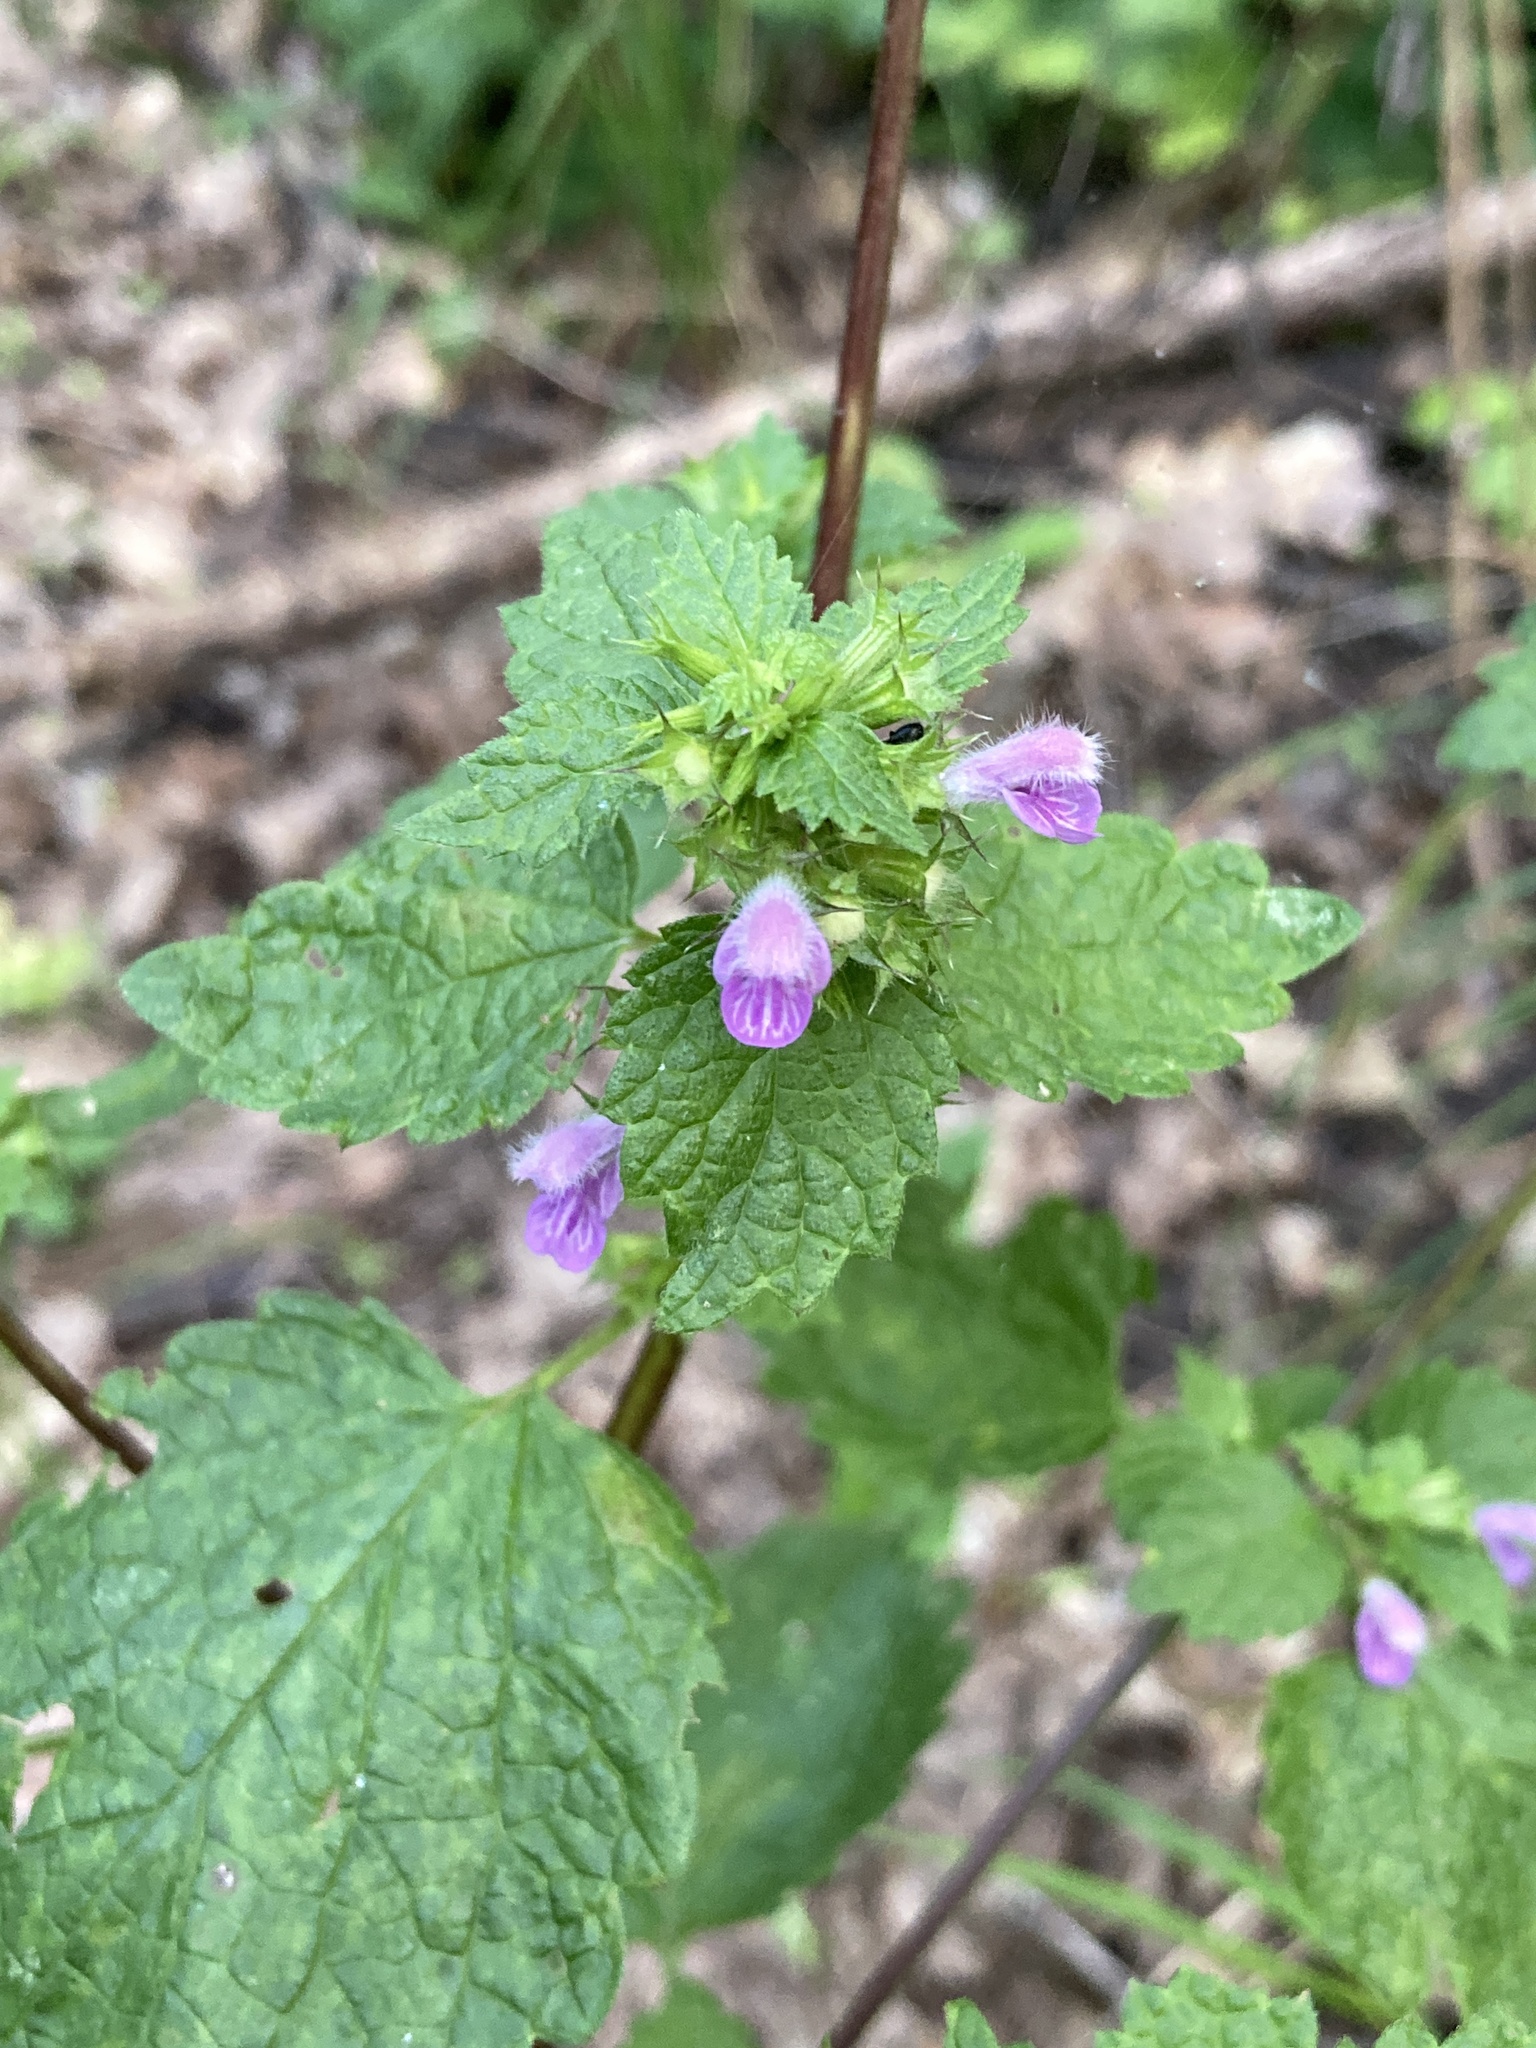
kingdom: Plantae
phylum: Tracheophyta
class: Magnoliopsida
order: Lamiales
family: Lamiaceae
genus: Ballota
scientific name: Ballota nigra
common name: Black horehound
